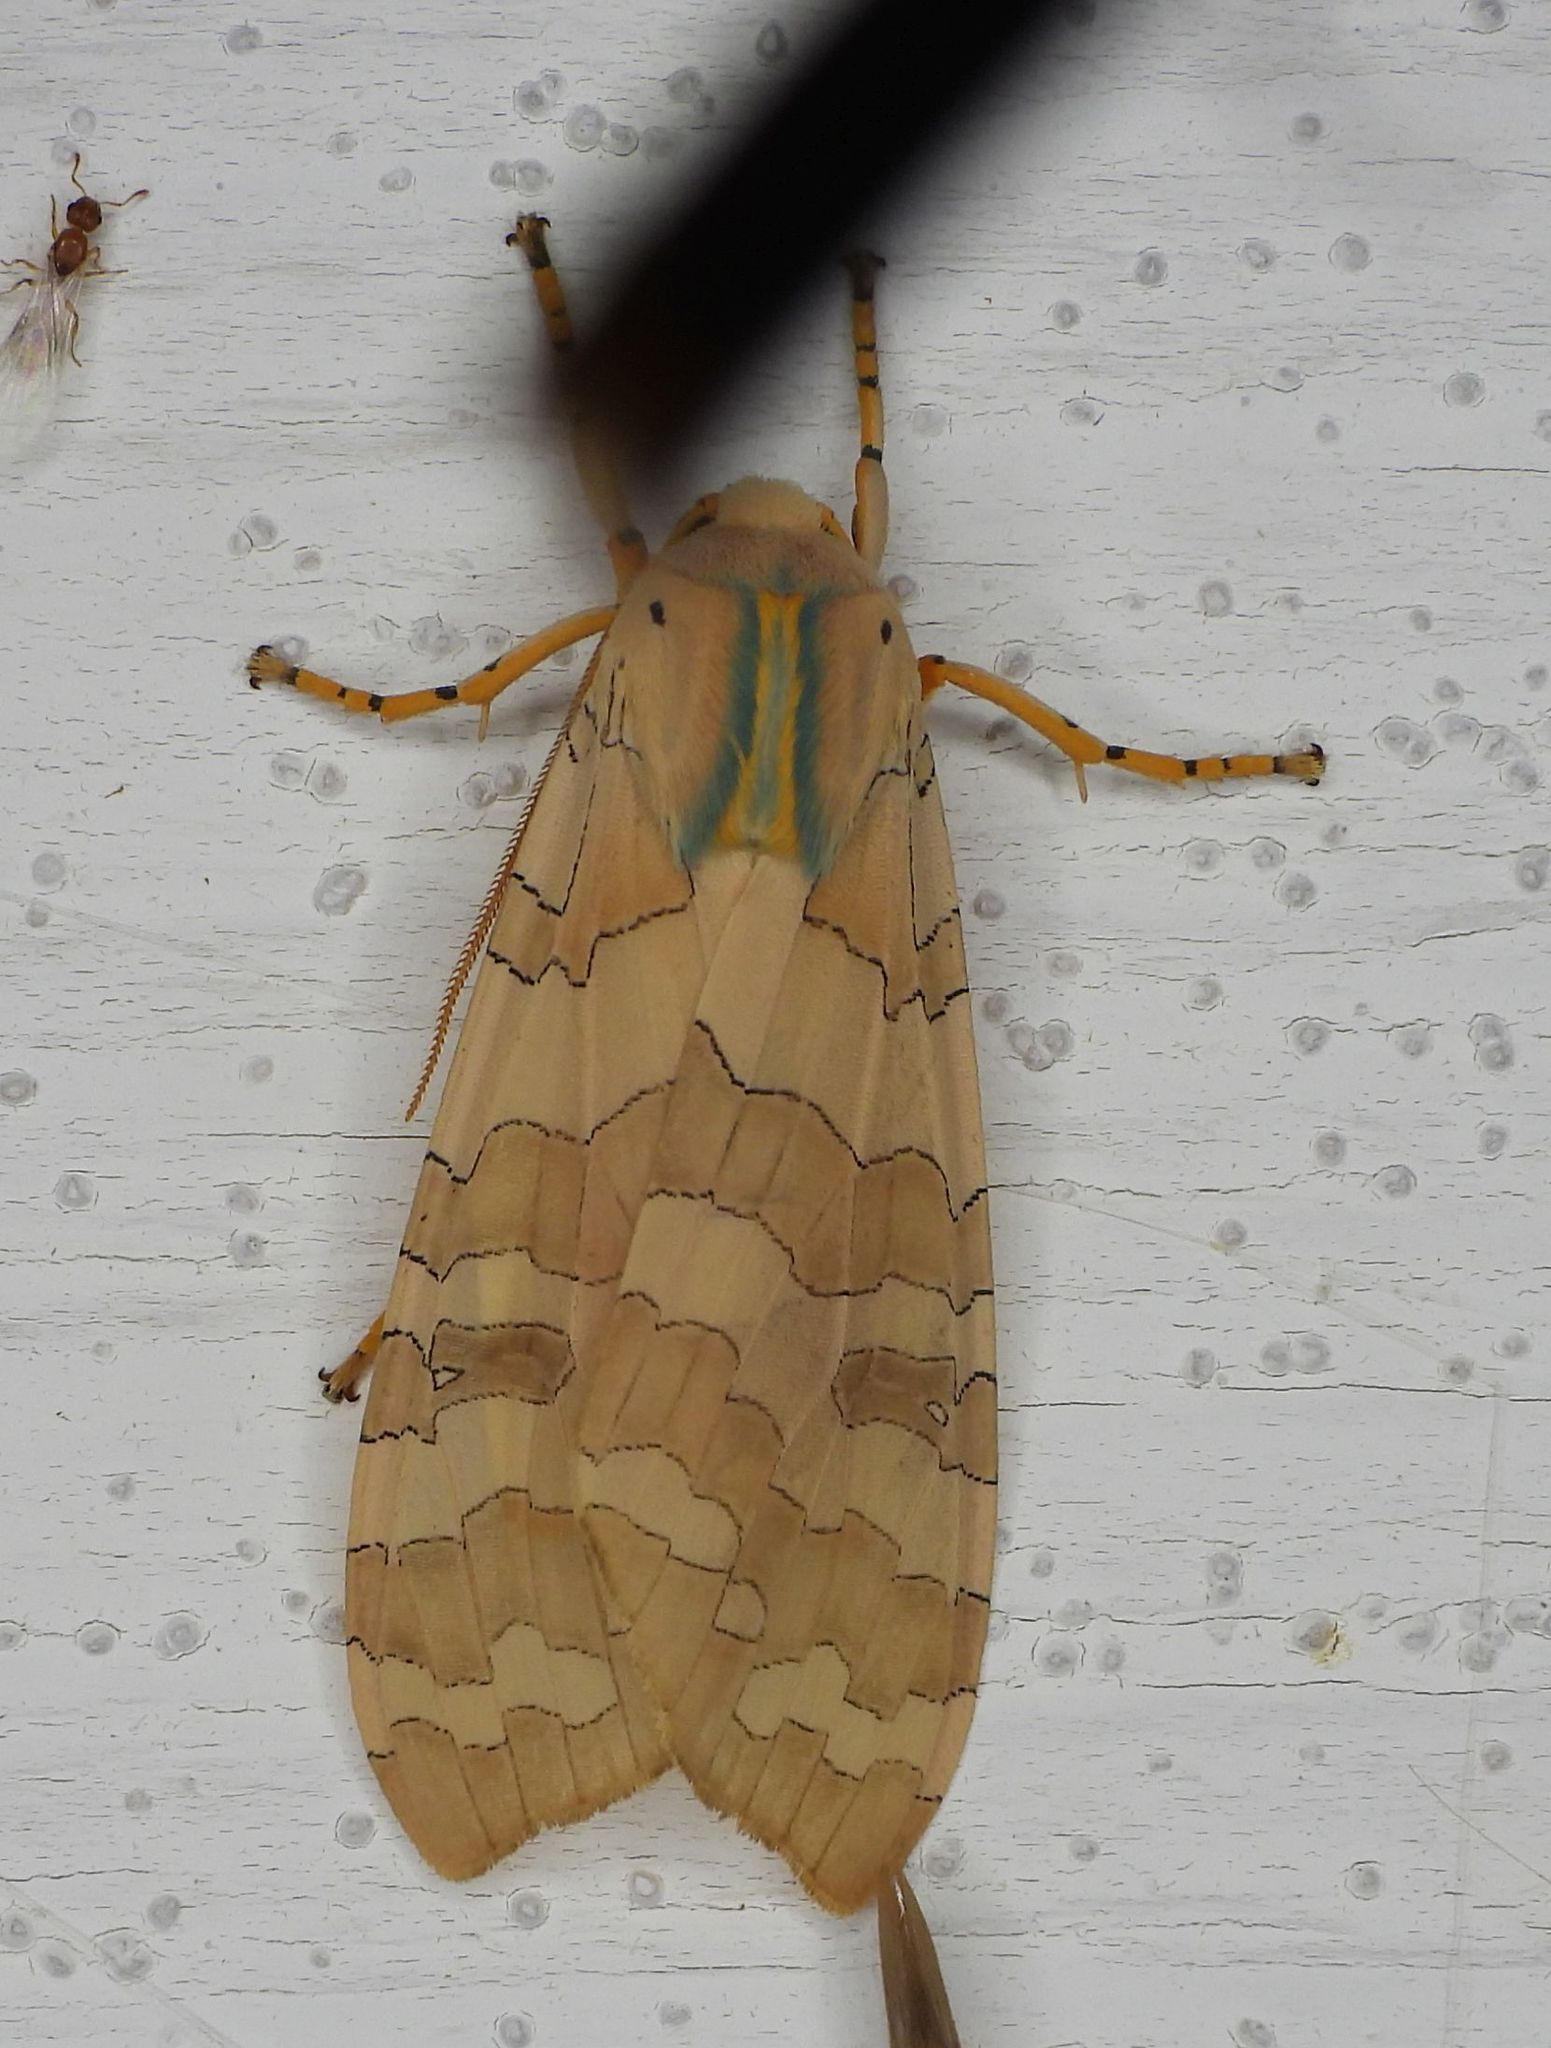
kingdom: Animalia
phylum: Arthropoda
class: Insecta
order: Lepidoptera
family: Erebidae
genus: Halysidota
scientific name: Halysidota tessellaris
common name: Banded tussock moth
